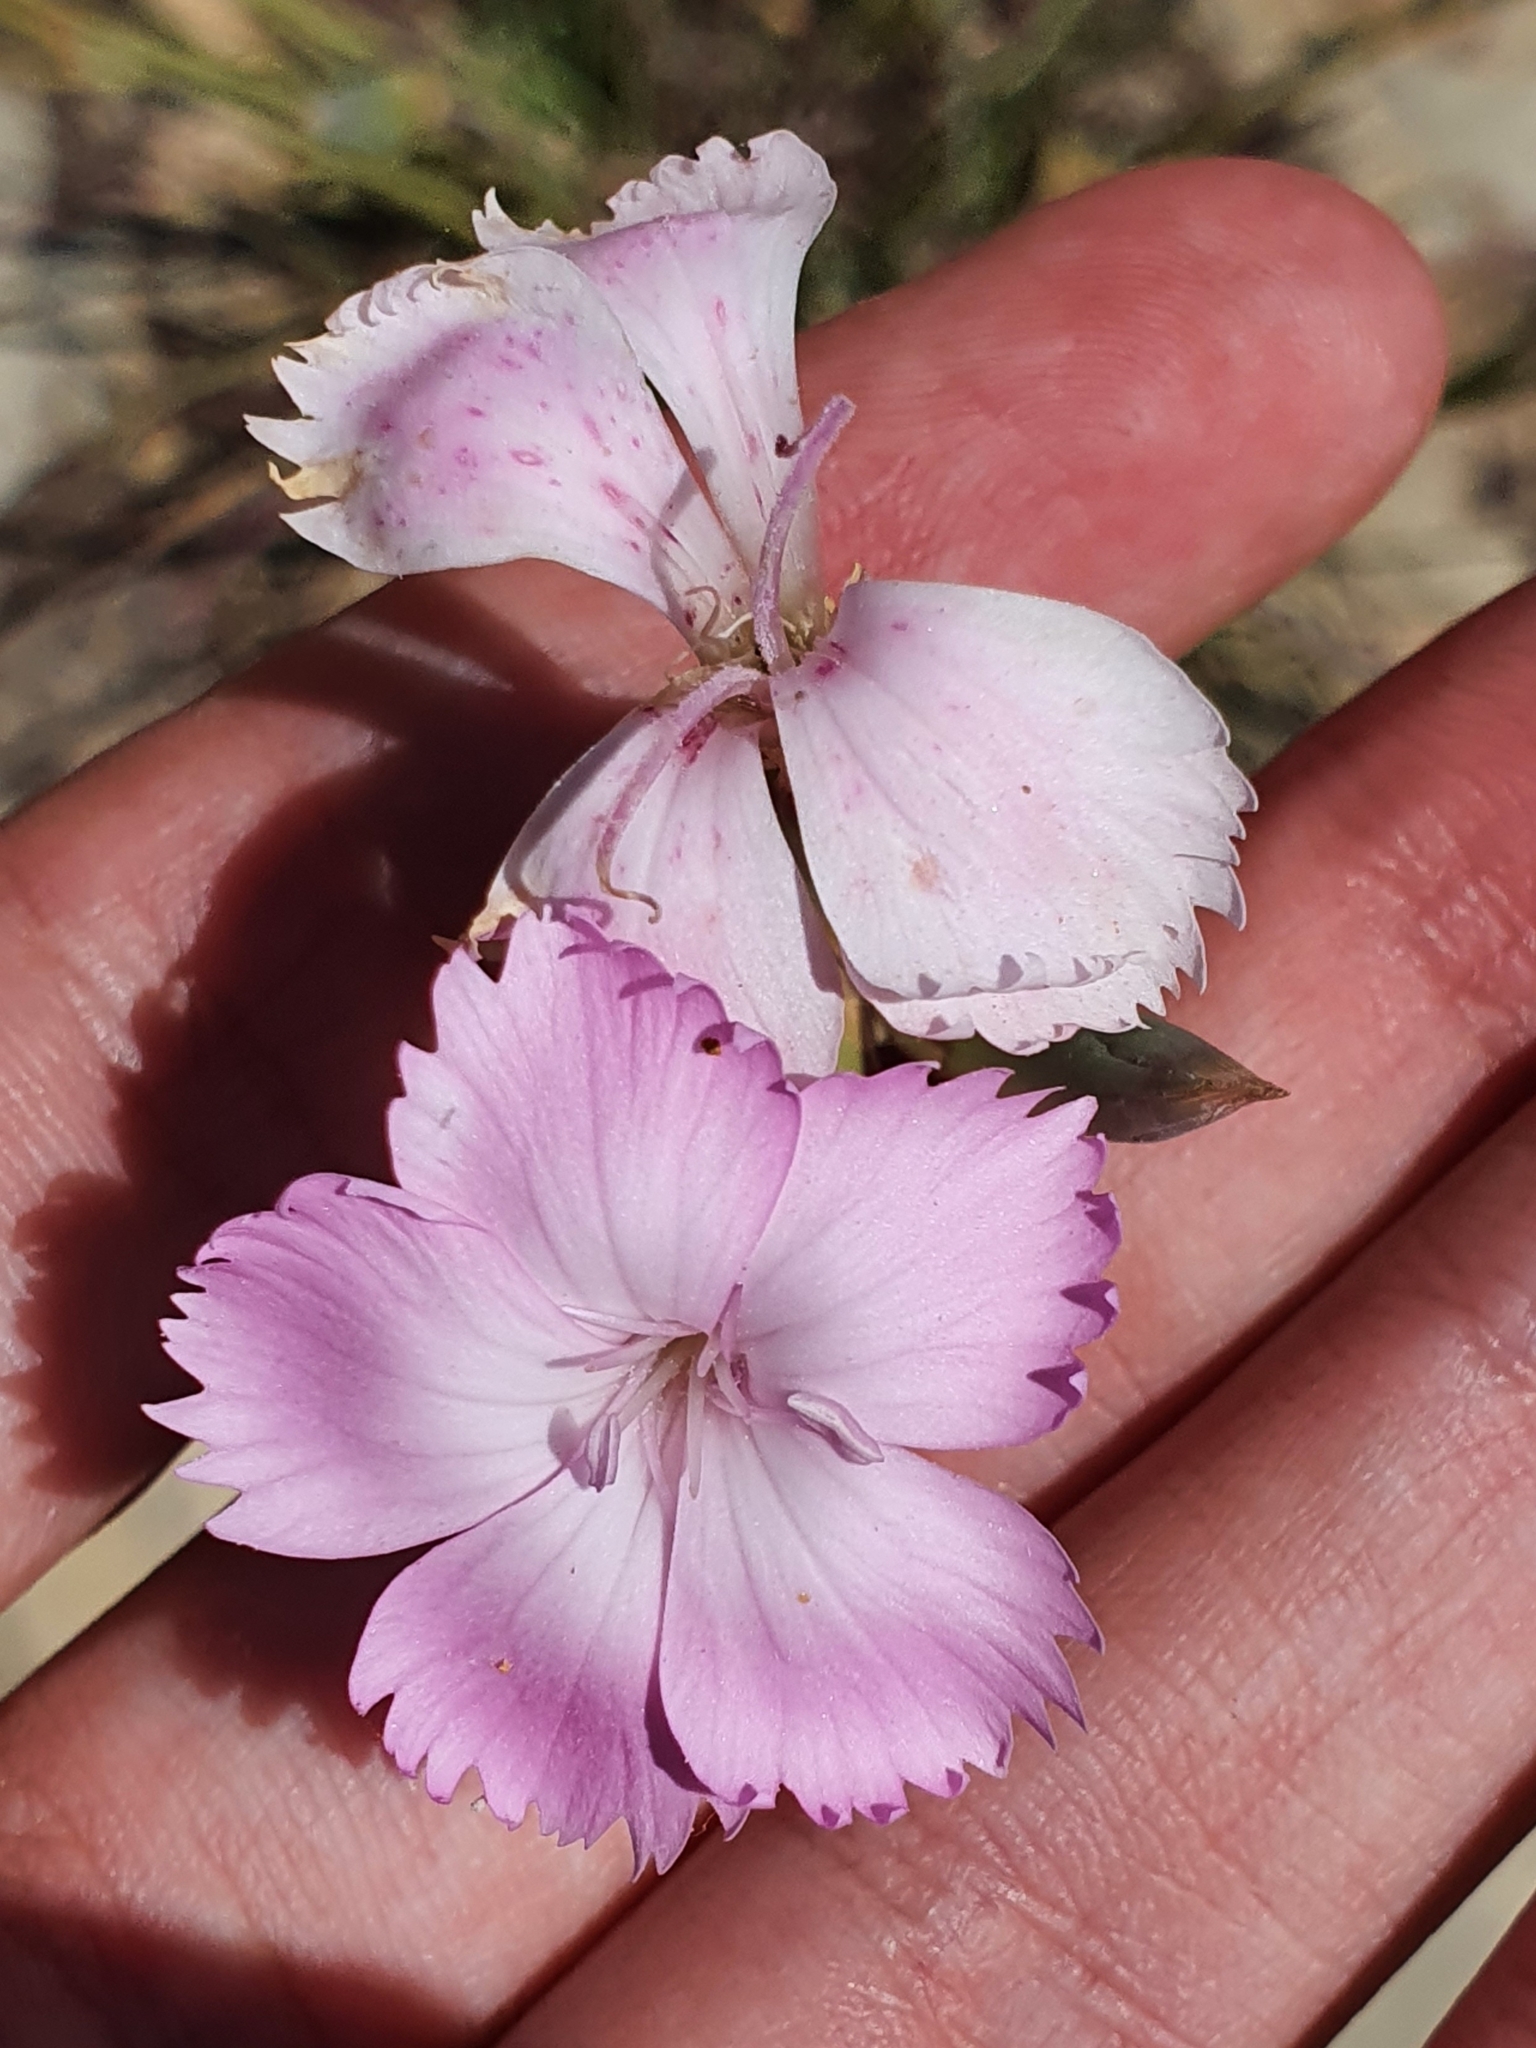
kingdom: Plantae
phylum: Tracheophyta
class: Magnoliopsida
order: Caryophyllales
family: Caryophyllaceae
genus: Dianthus
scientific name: Dianthus sylvestris
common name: Wood pink
